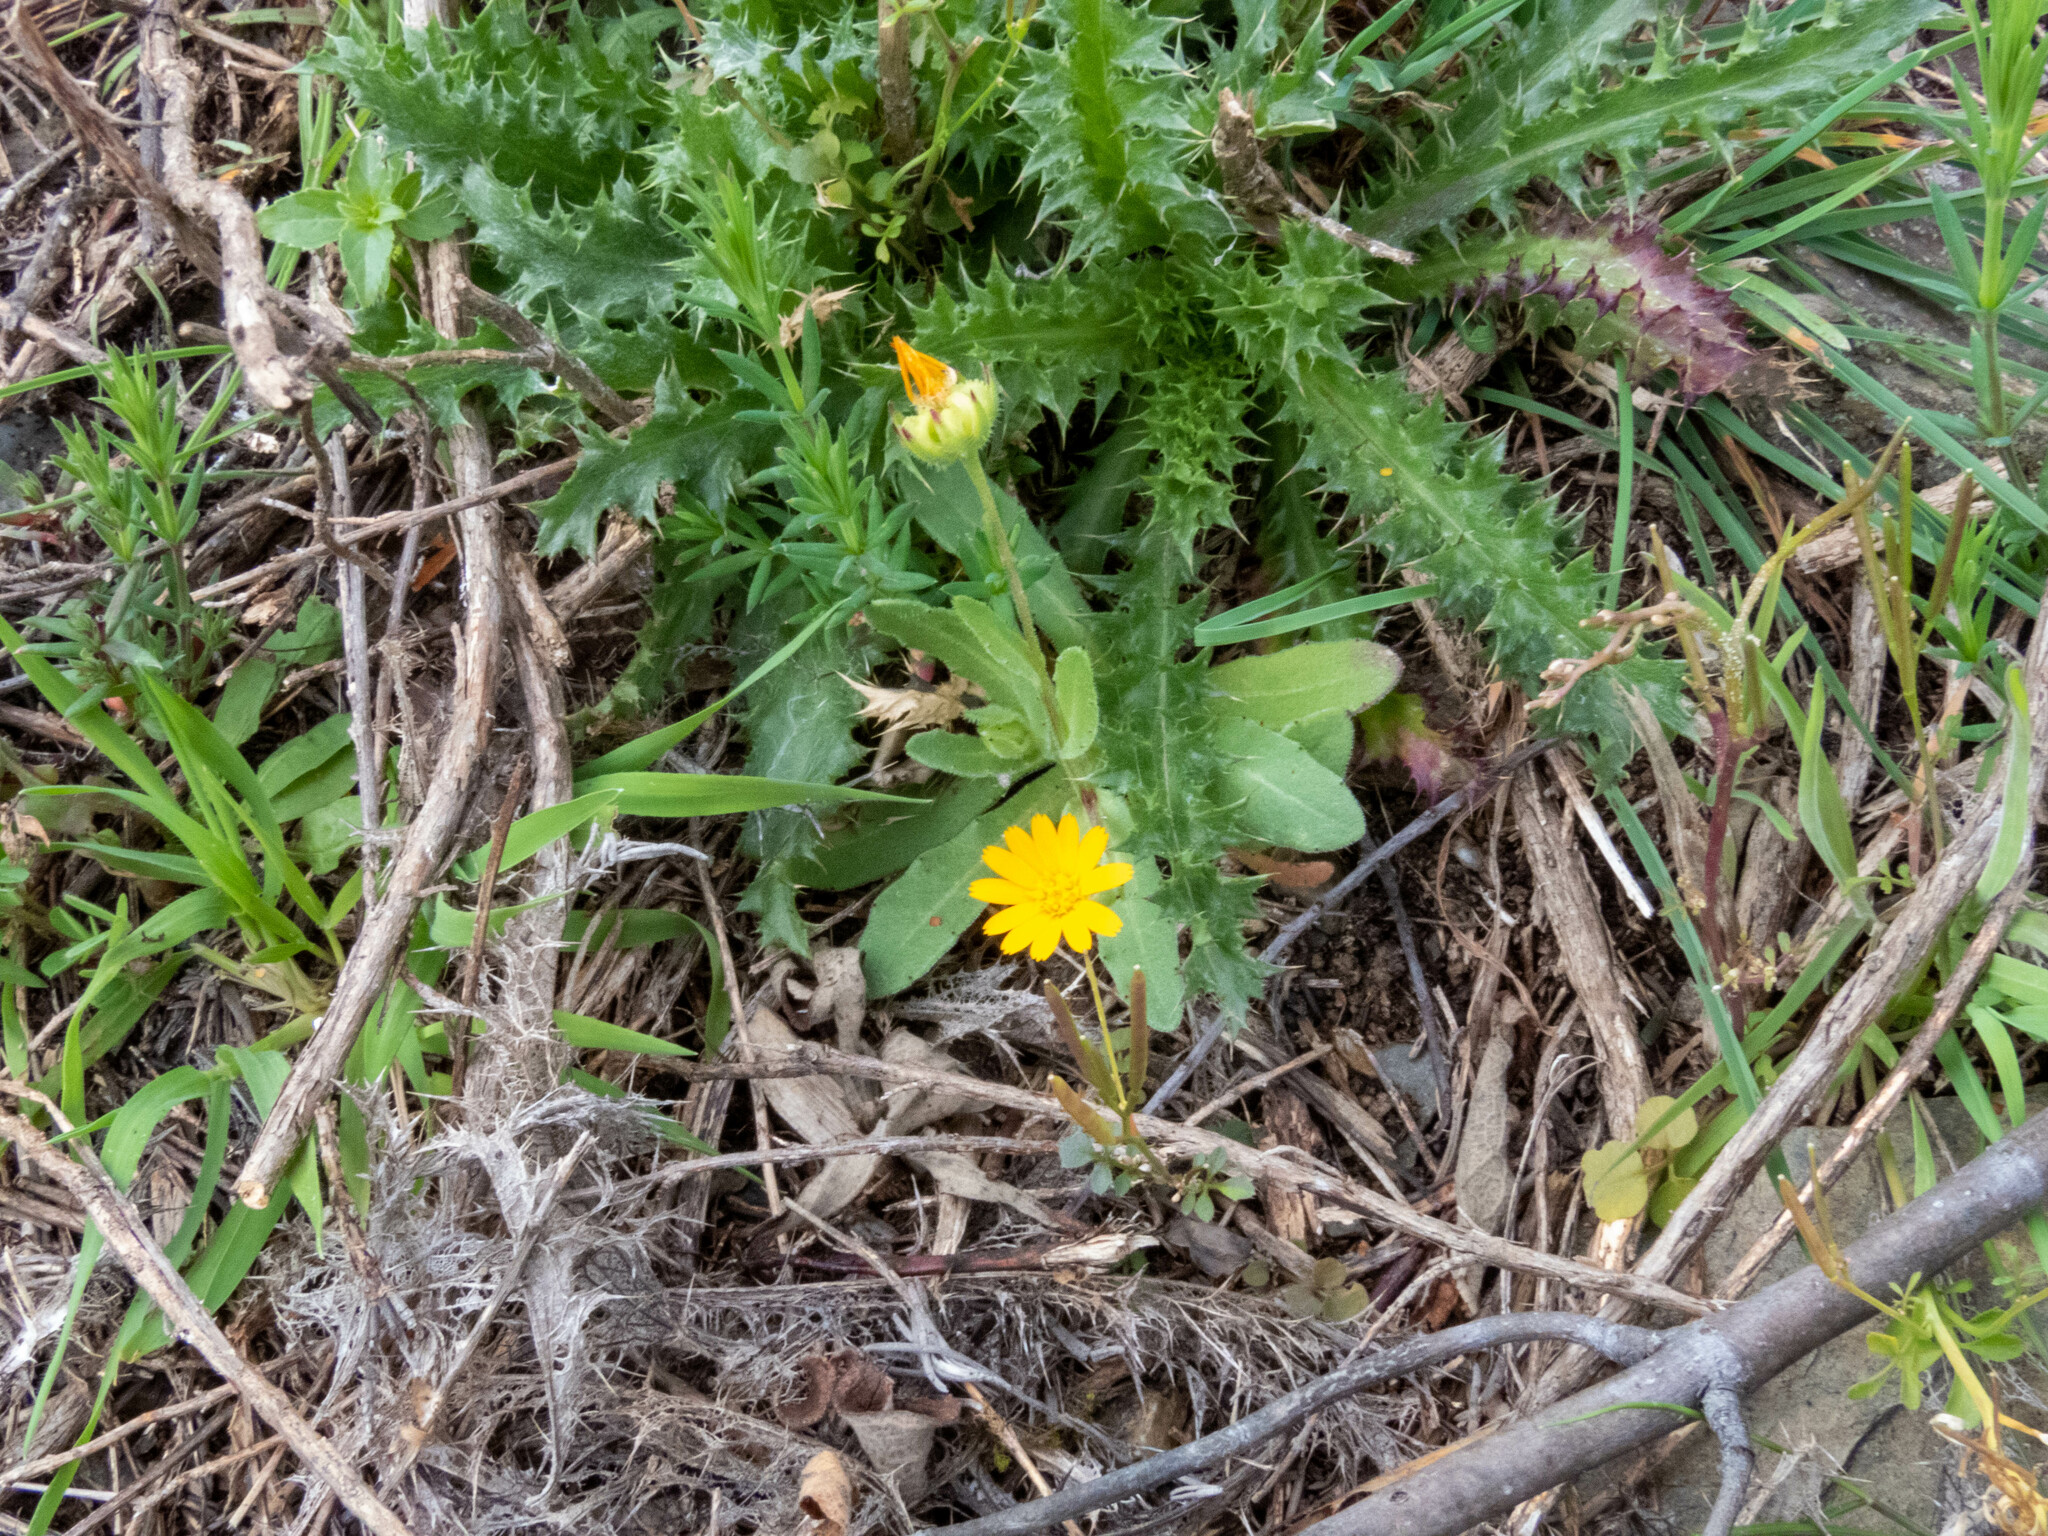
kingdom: Plantae
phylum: Tracheophyta
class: Magnoliopsida
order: Asterales
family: Asteraceae
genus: Calendula
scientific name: Calendula arvensis
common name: Field marigold
